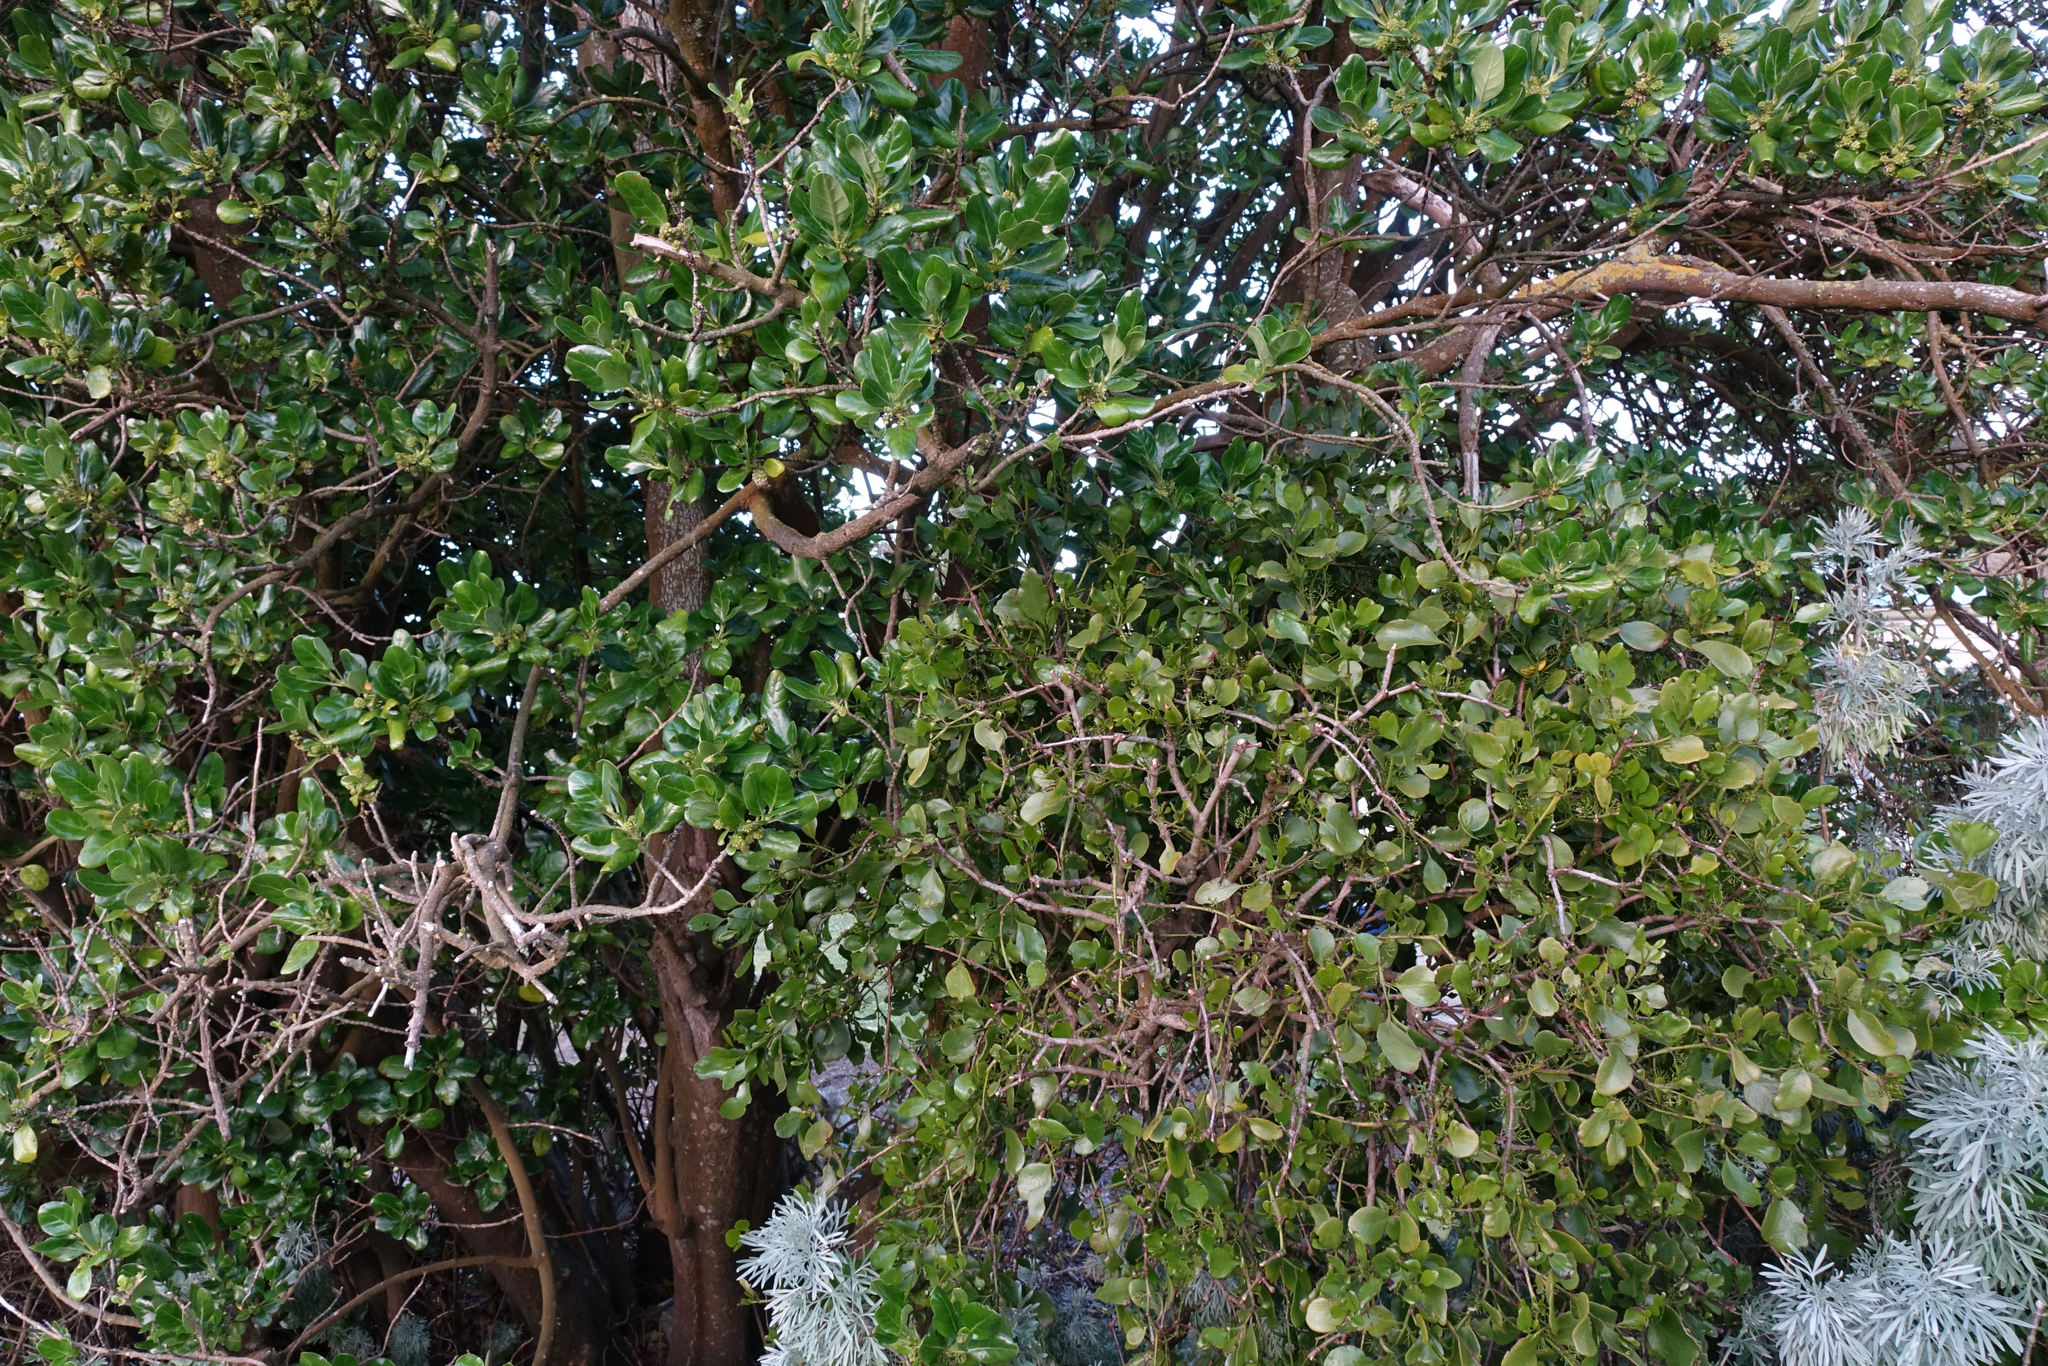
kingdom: Plantae
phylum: Tracheophyta
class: Magnoliopsida
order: Santalales
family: Loranthaceae
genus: Ileostylus
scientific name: Ileostylus micranthus
